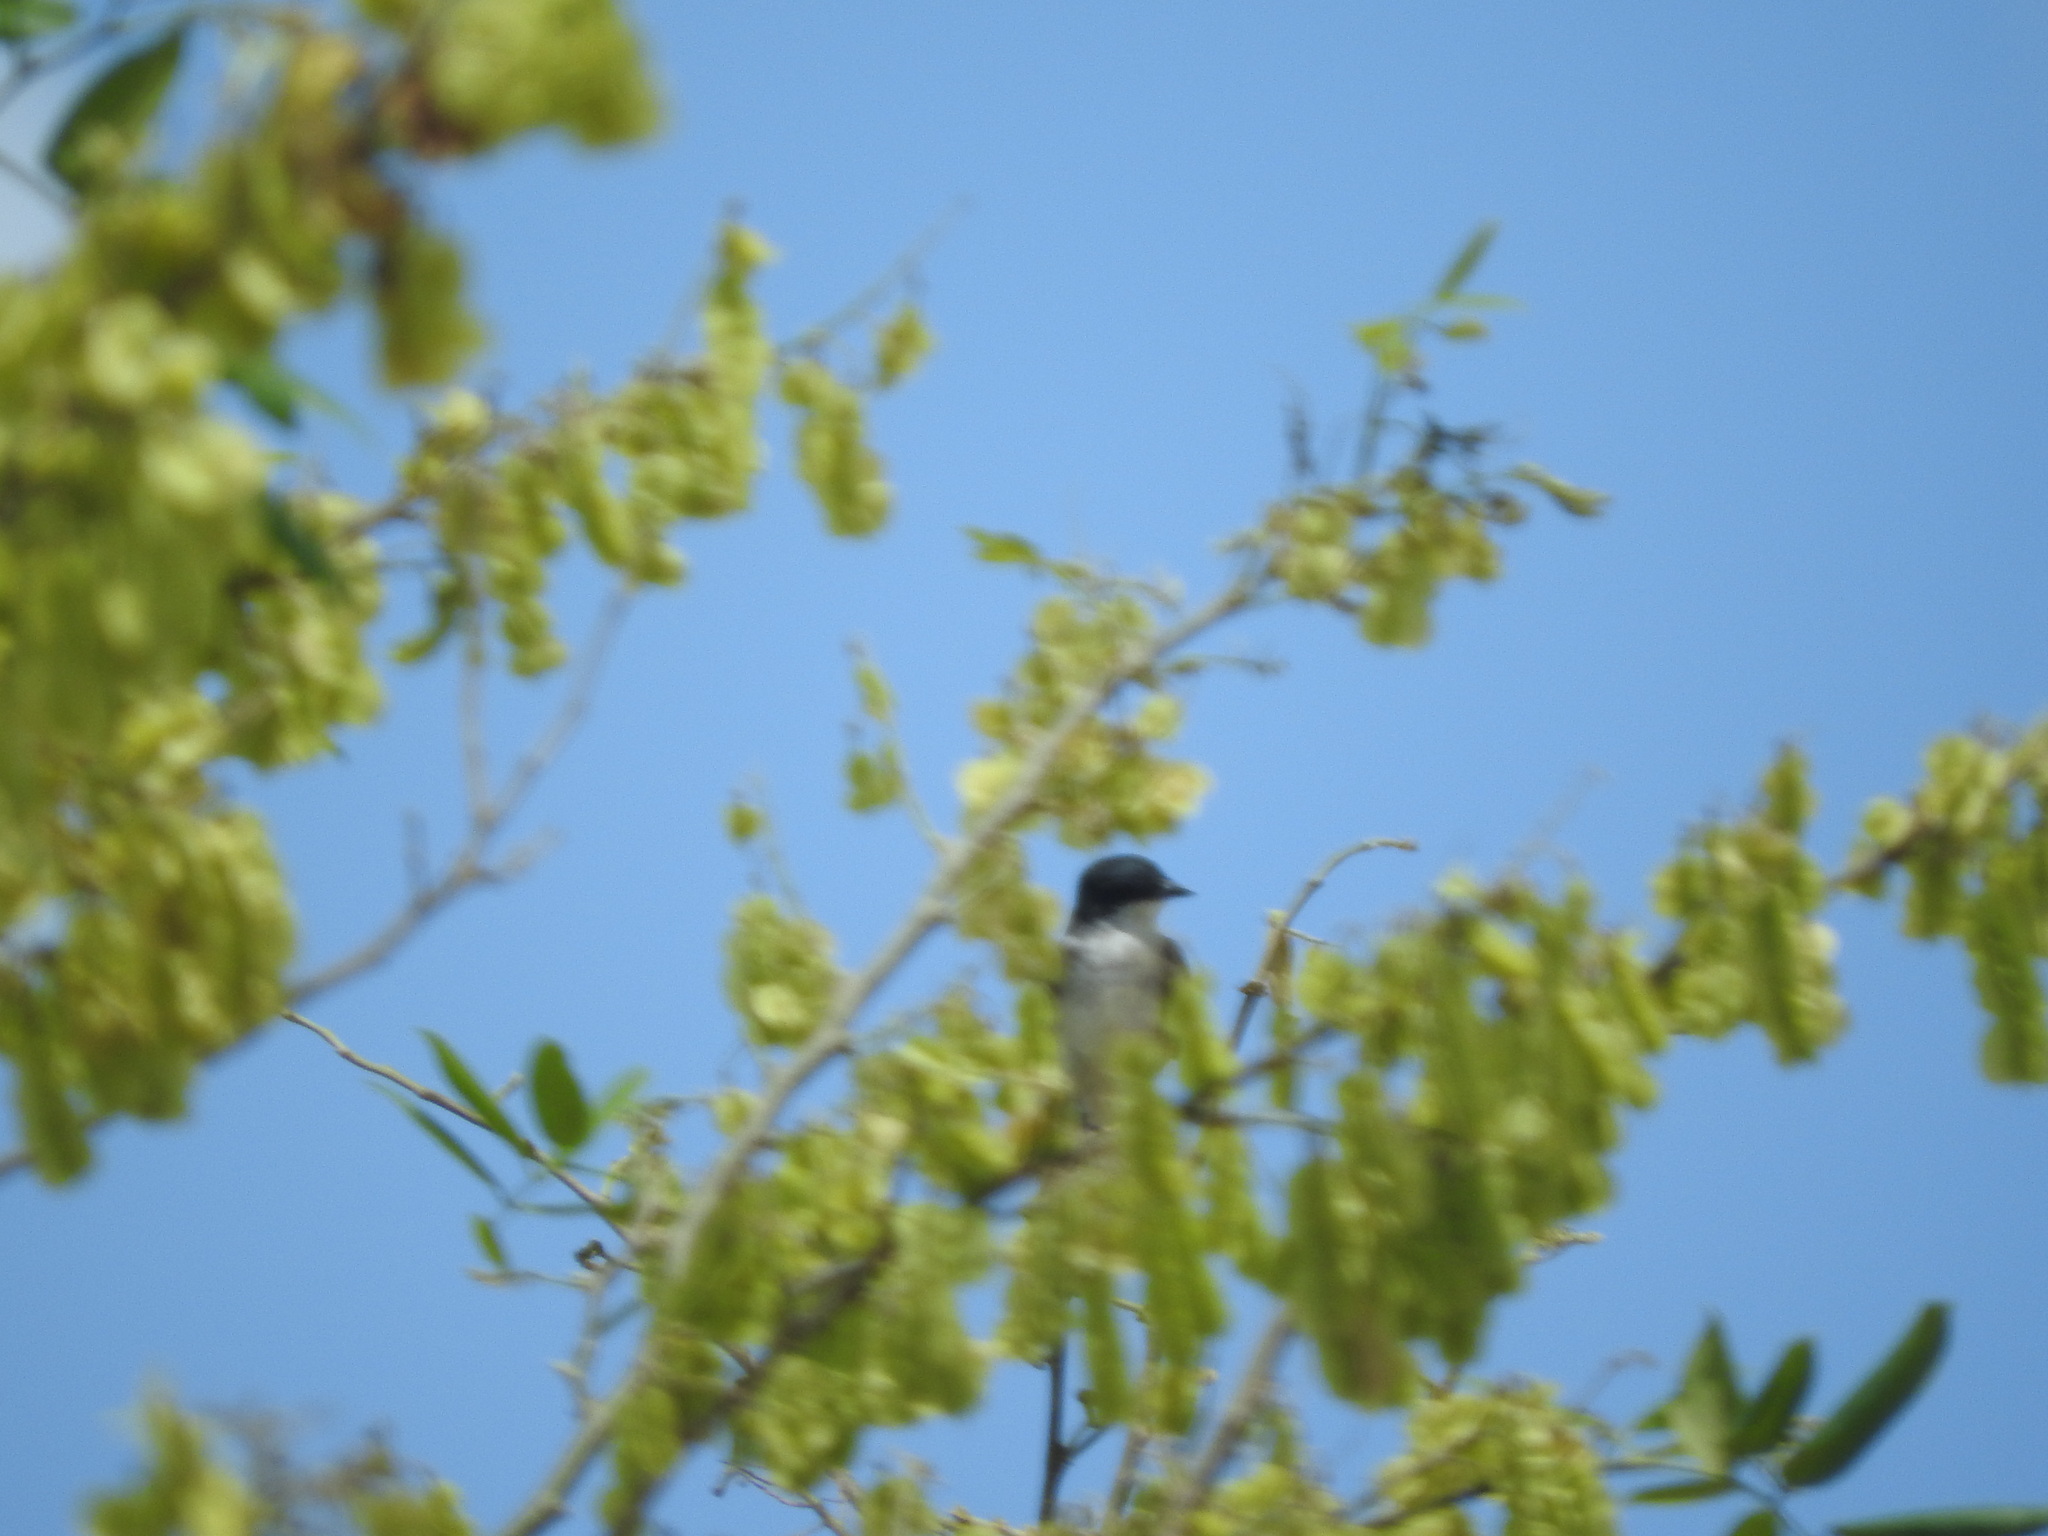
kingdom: Animalia
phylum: Chordata
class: Aves
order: Passeriformes
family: Tyrannidae
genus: Tyrannus
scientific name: Tyrannus tyrannus
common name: Eastern kingbird
